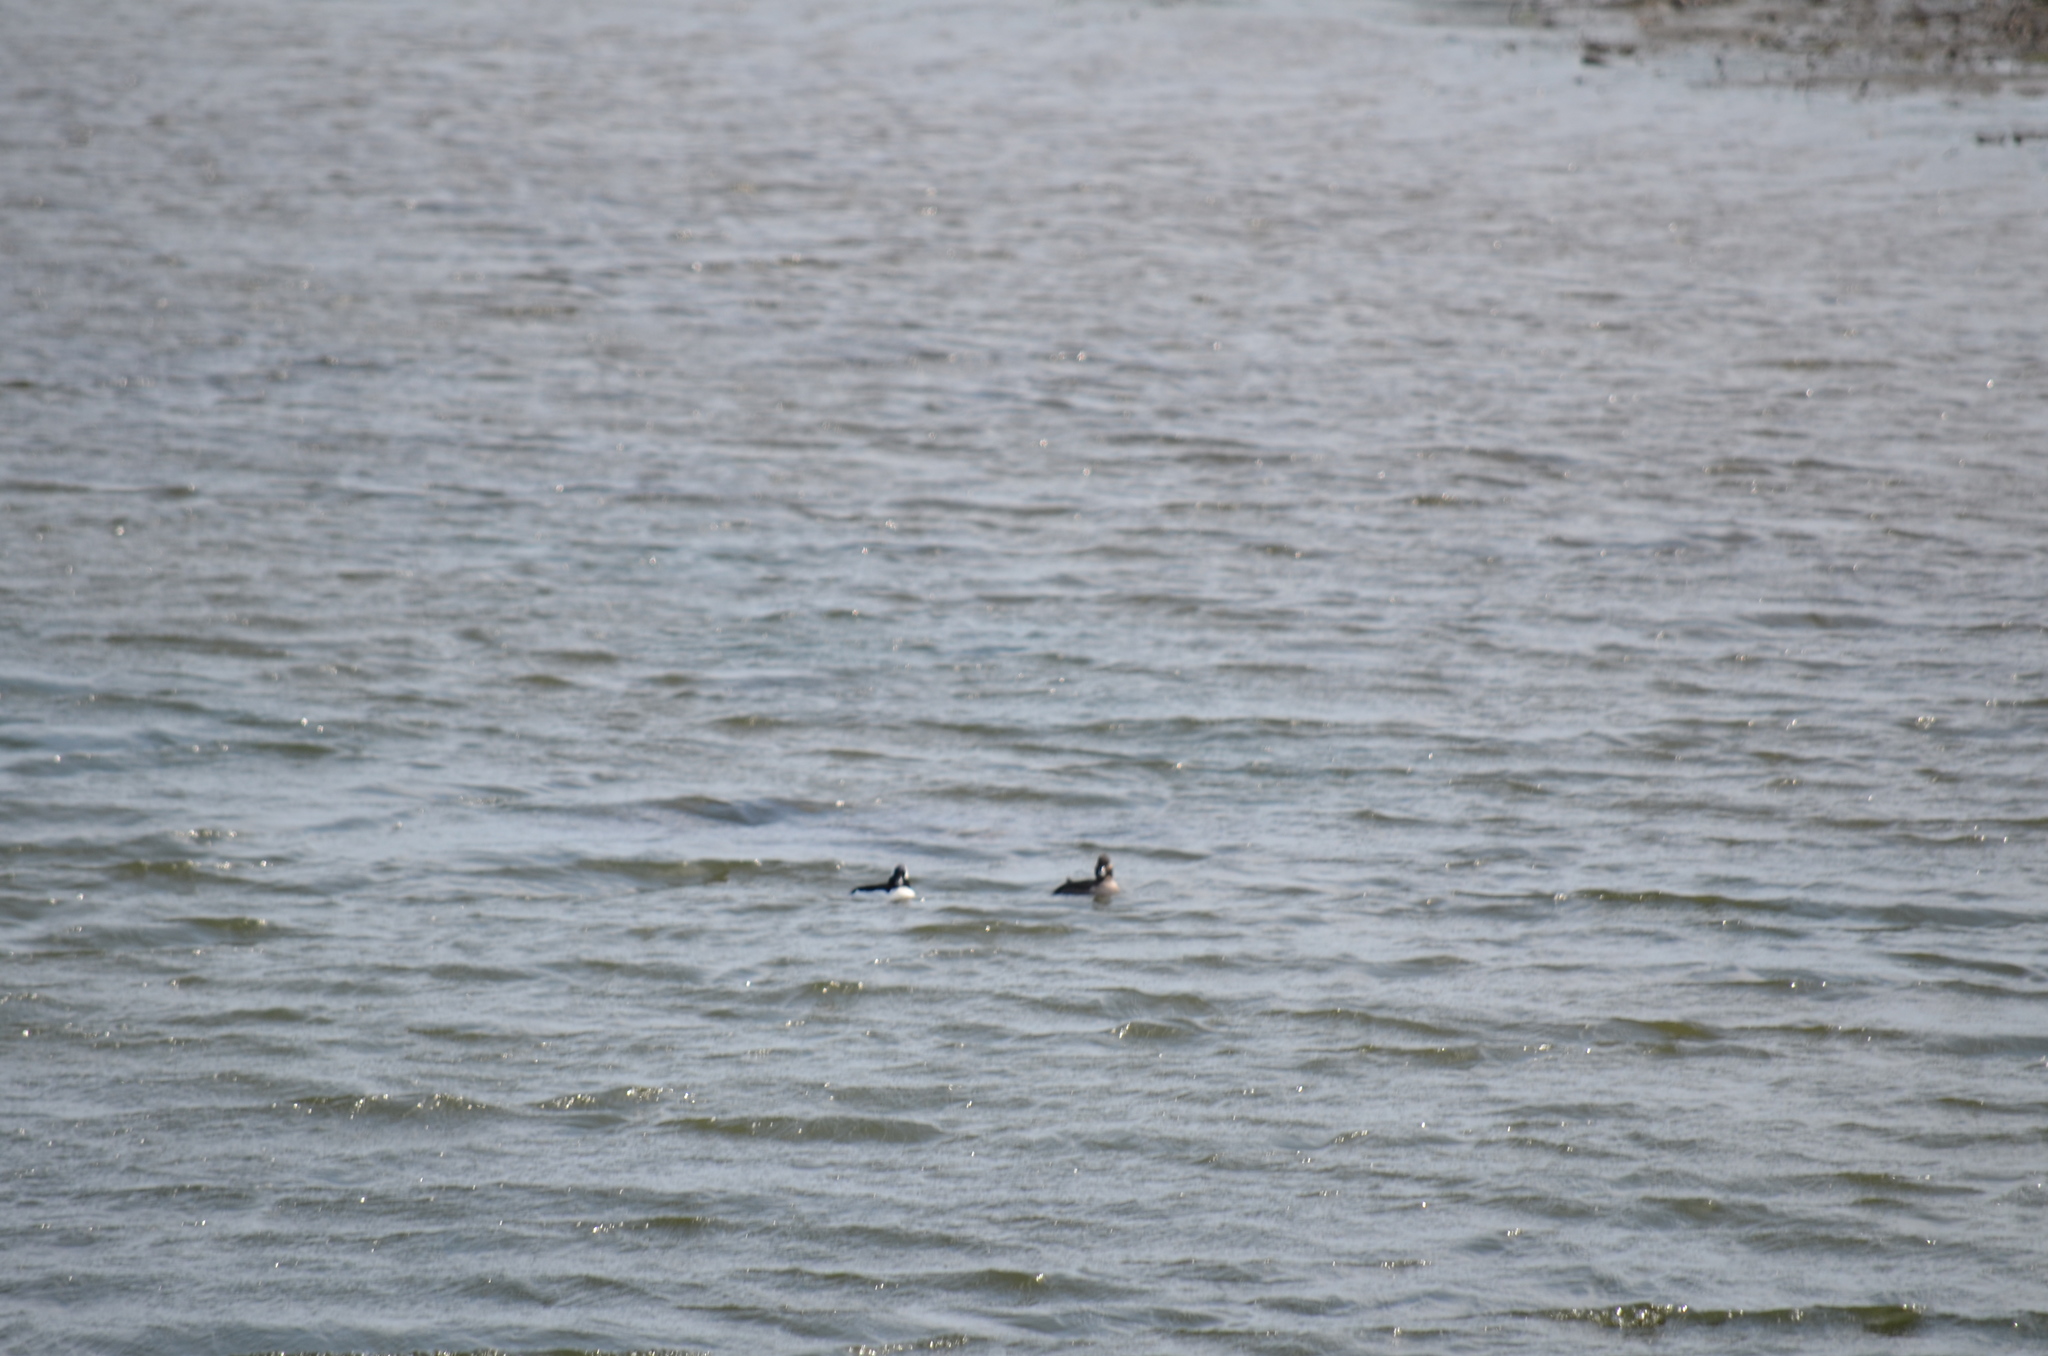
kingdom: Animalia
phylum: Chordata
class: Aves
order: Anseriformes
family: Anatidae
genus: Bucephala
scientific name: Bucephala albeola
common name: Bufflehead
